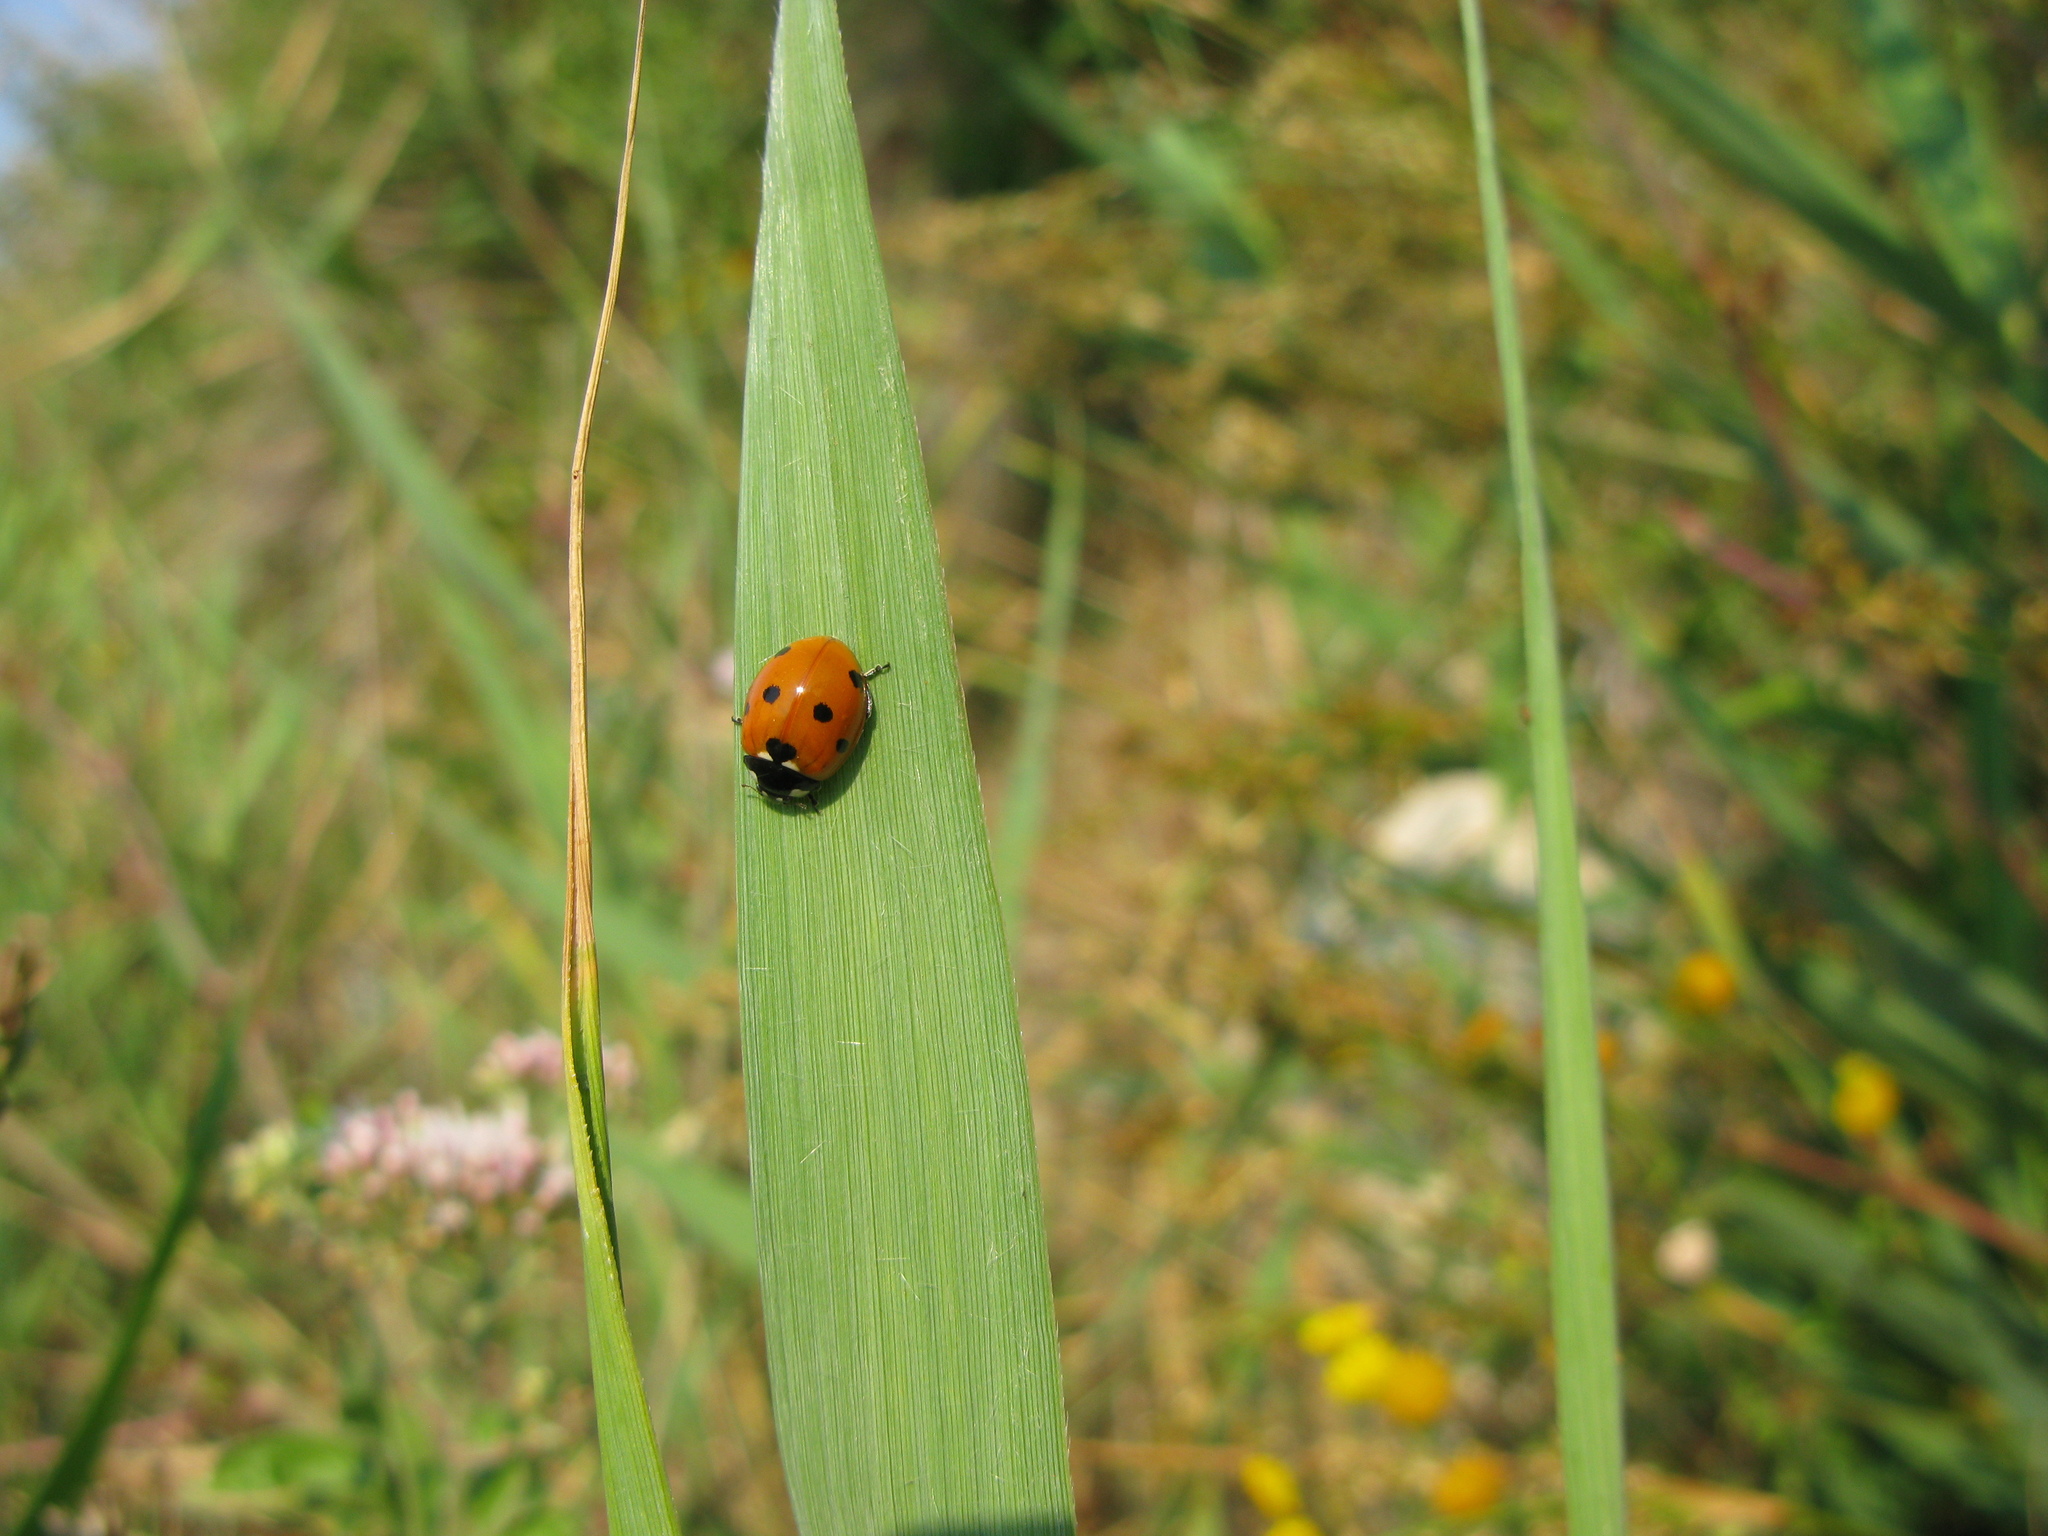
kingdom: Animalia
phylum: Arthropoda
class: Insecta
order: Coleoptera
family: Coccinellidae
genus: Coccinella
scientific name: Coccinella septempunctata
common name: Sevenspotted lady beetle
